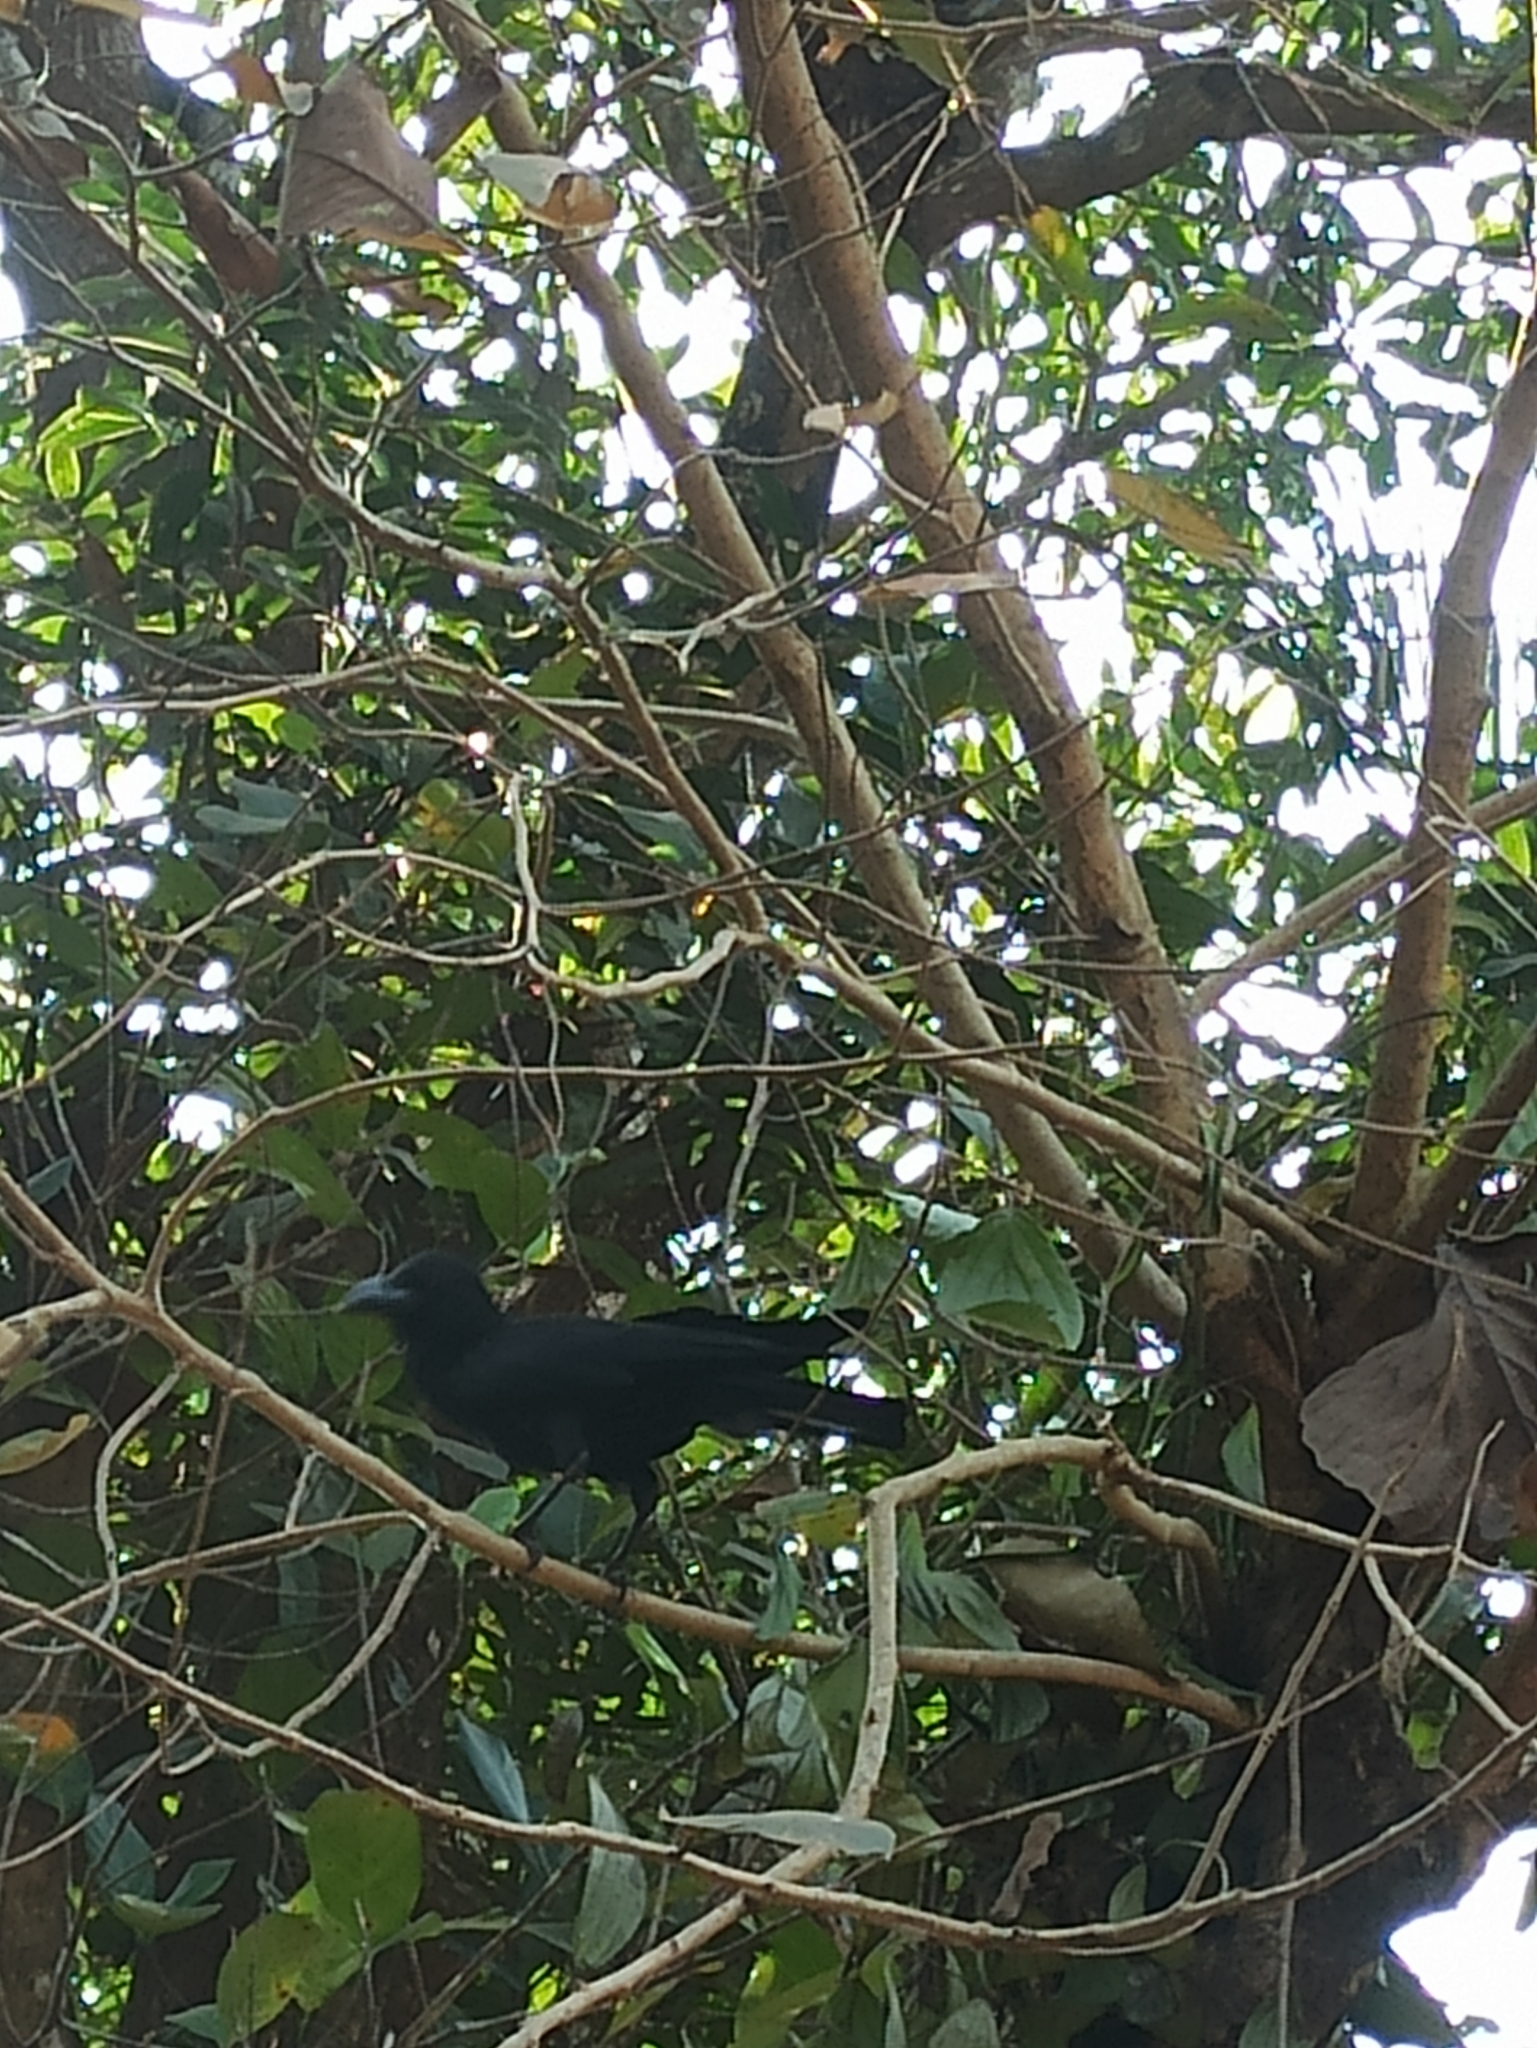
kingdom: Animalia
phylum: Chordata
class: Aves
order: Passeriformes
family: Corvidae
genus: Corvus
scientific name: Corvus macrorhynchos
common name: Large-billed crow
